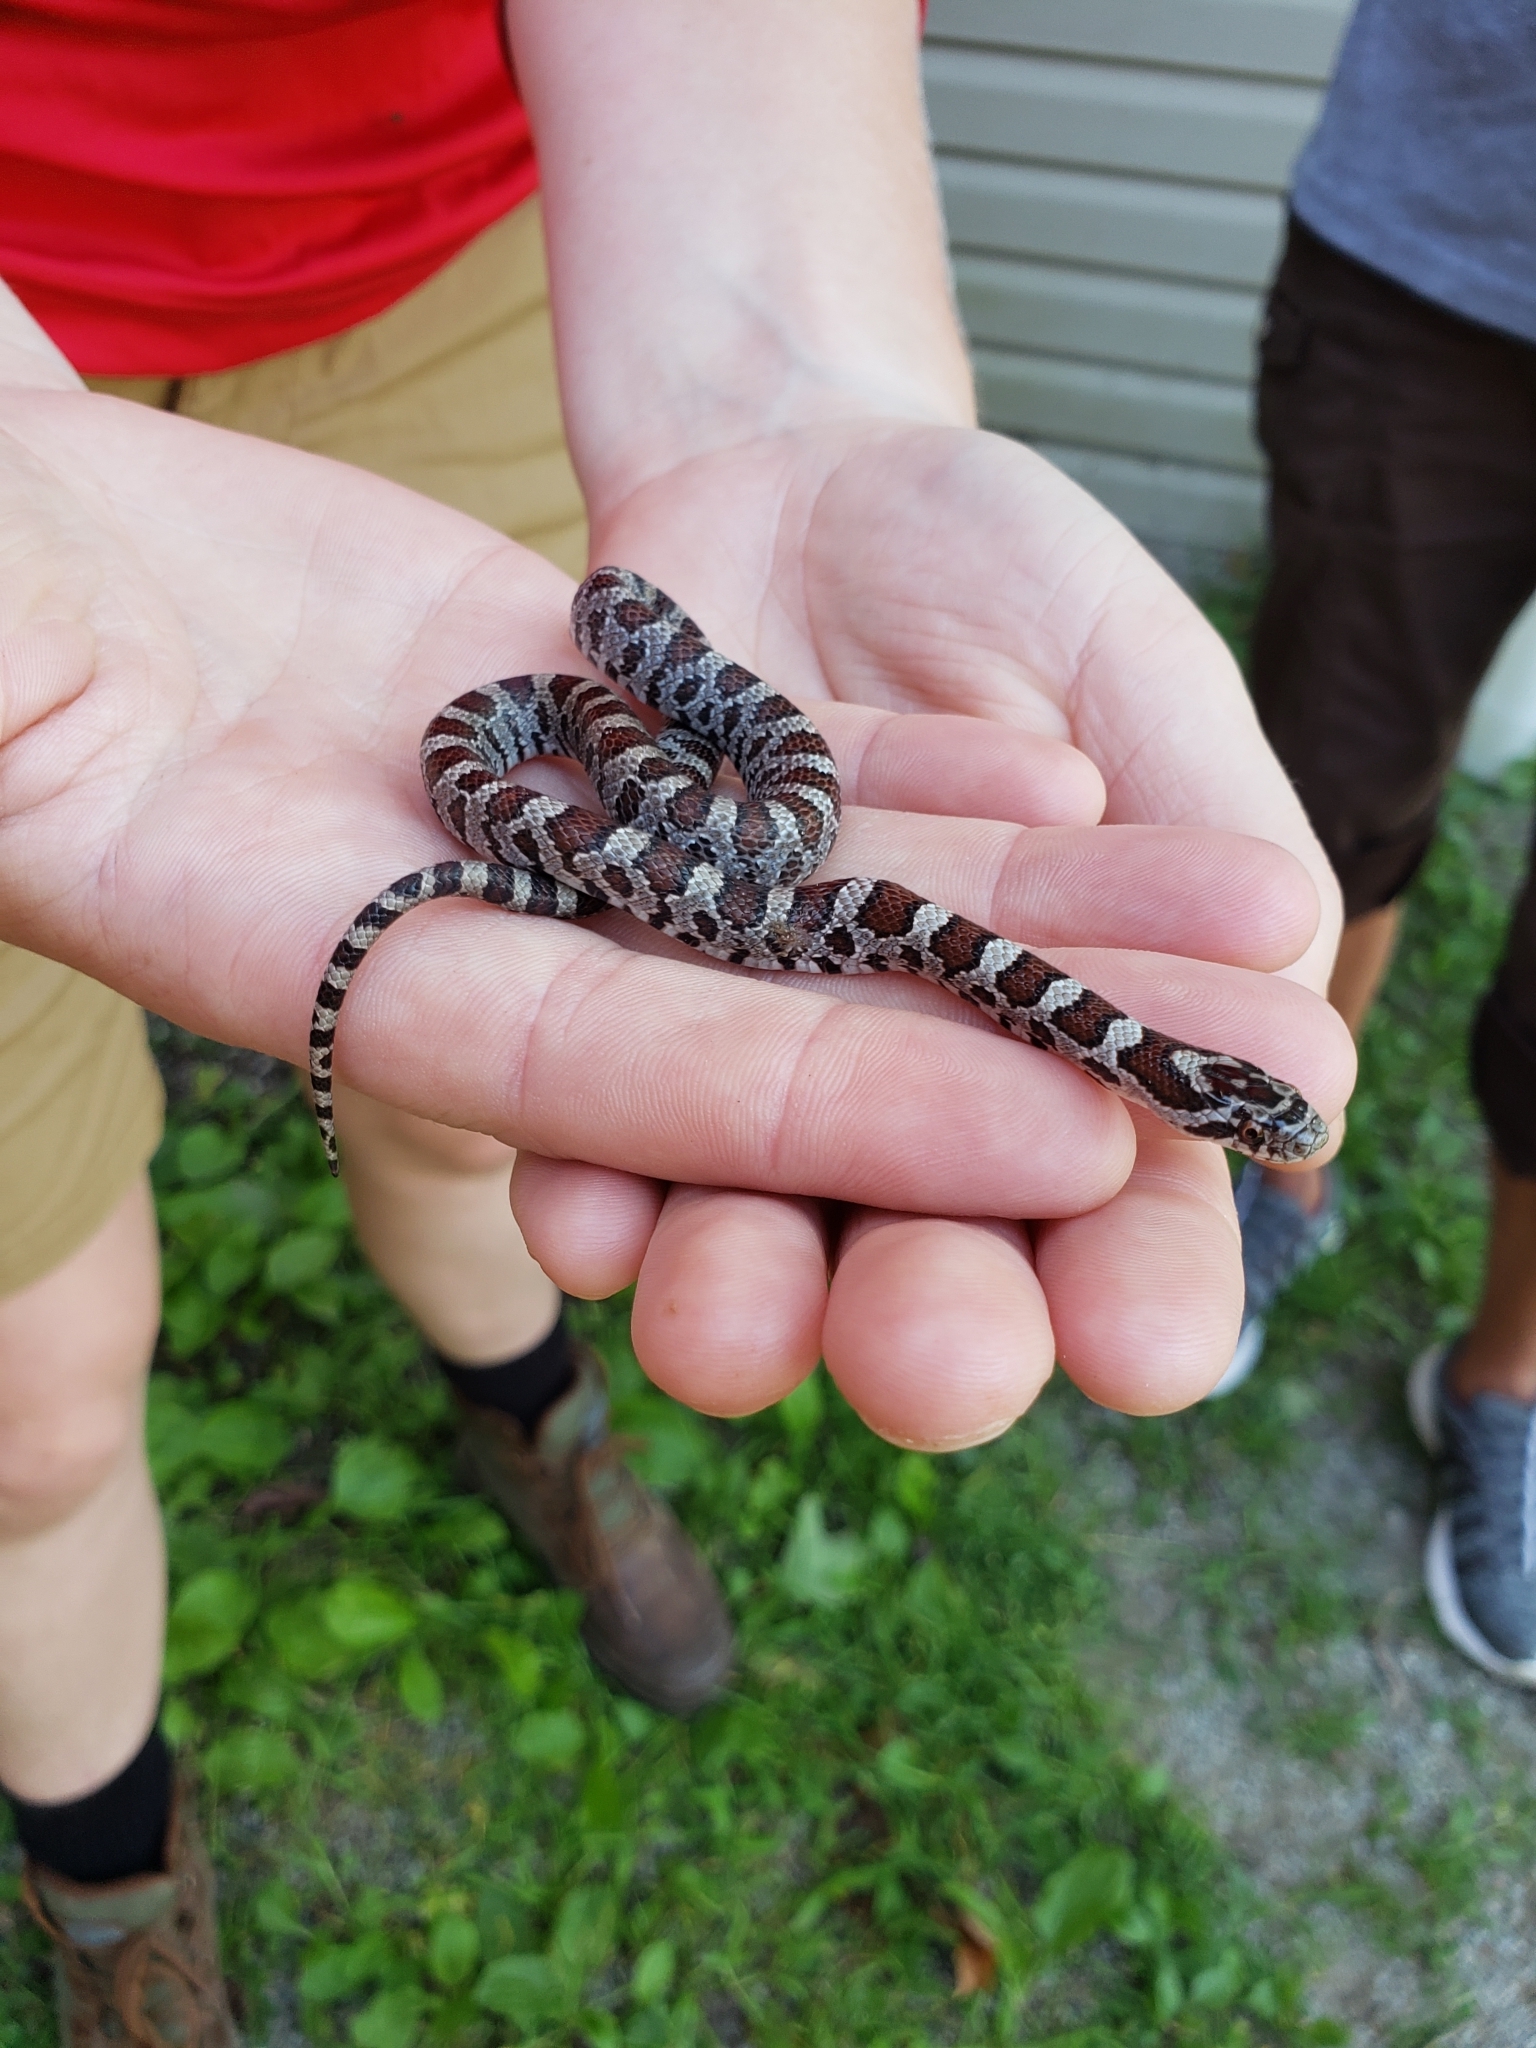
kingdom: Animalia
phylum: Chordata
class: Squamata
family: Colubridae
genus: Lampropeltis
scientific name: Lampropeltis triangulum
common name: Eastern milksnake
